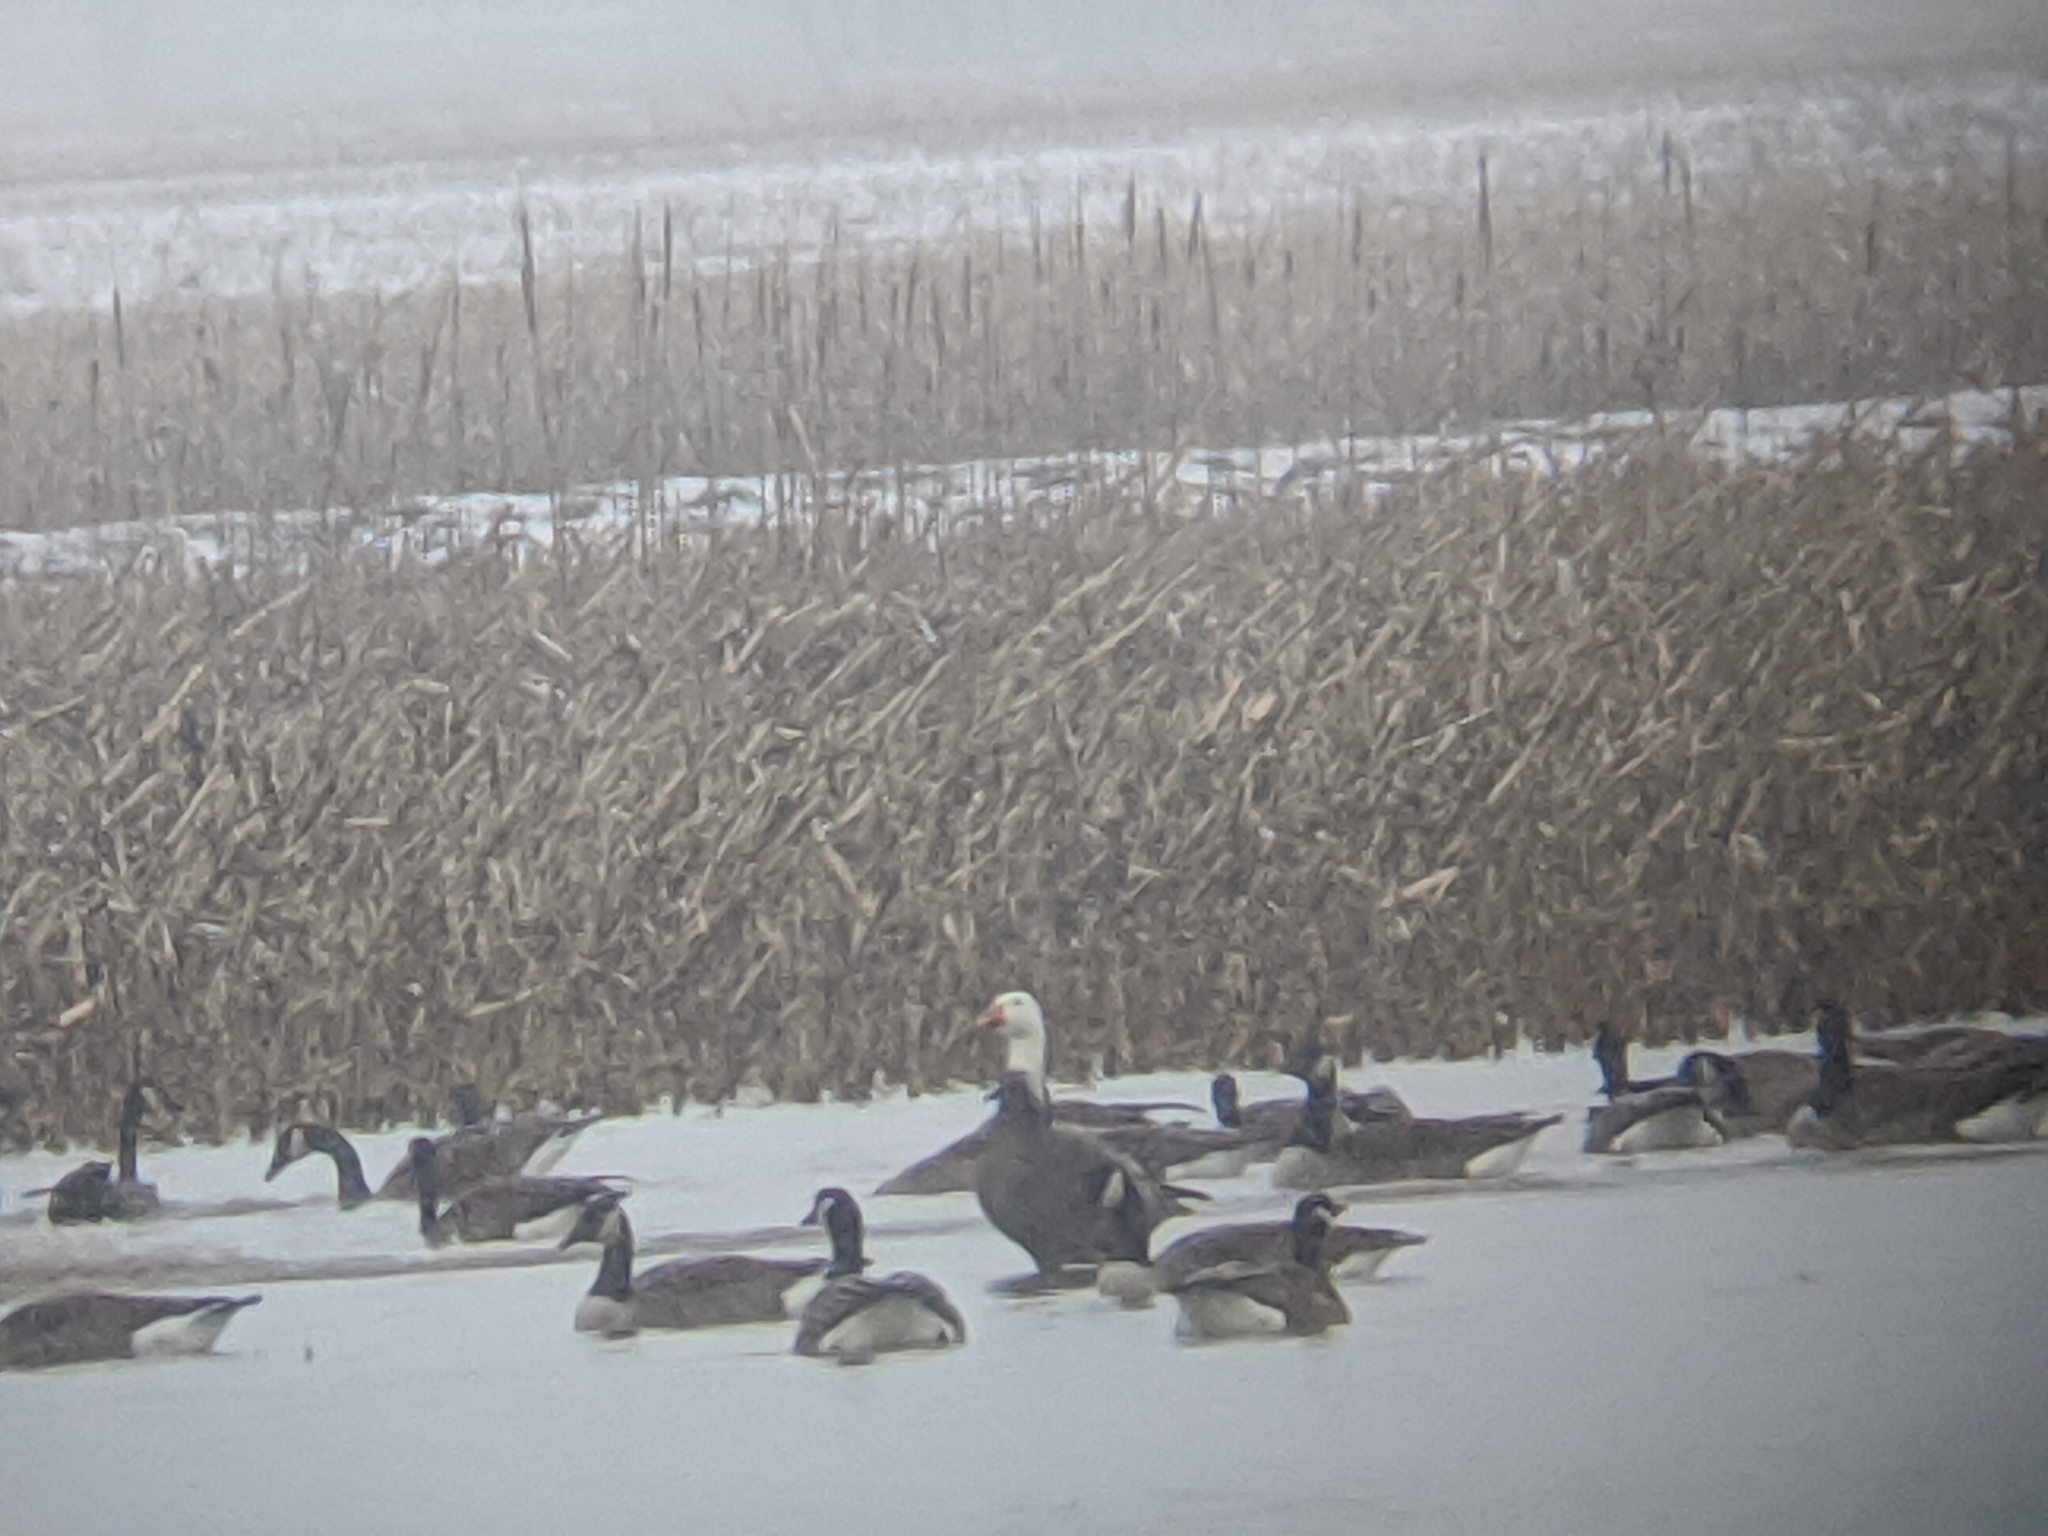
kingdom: Animalia
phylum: Chordata
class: Aves
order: Anseriformes
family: Anatidae
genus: Anser
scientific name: Anser caerulescens
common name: Snow goose
